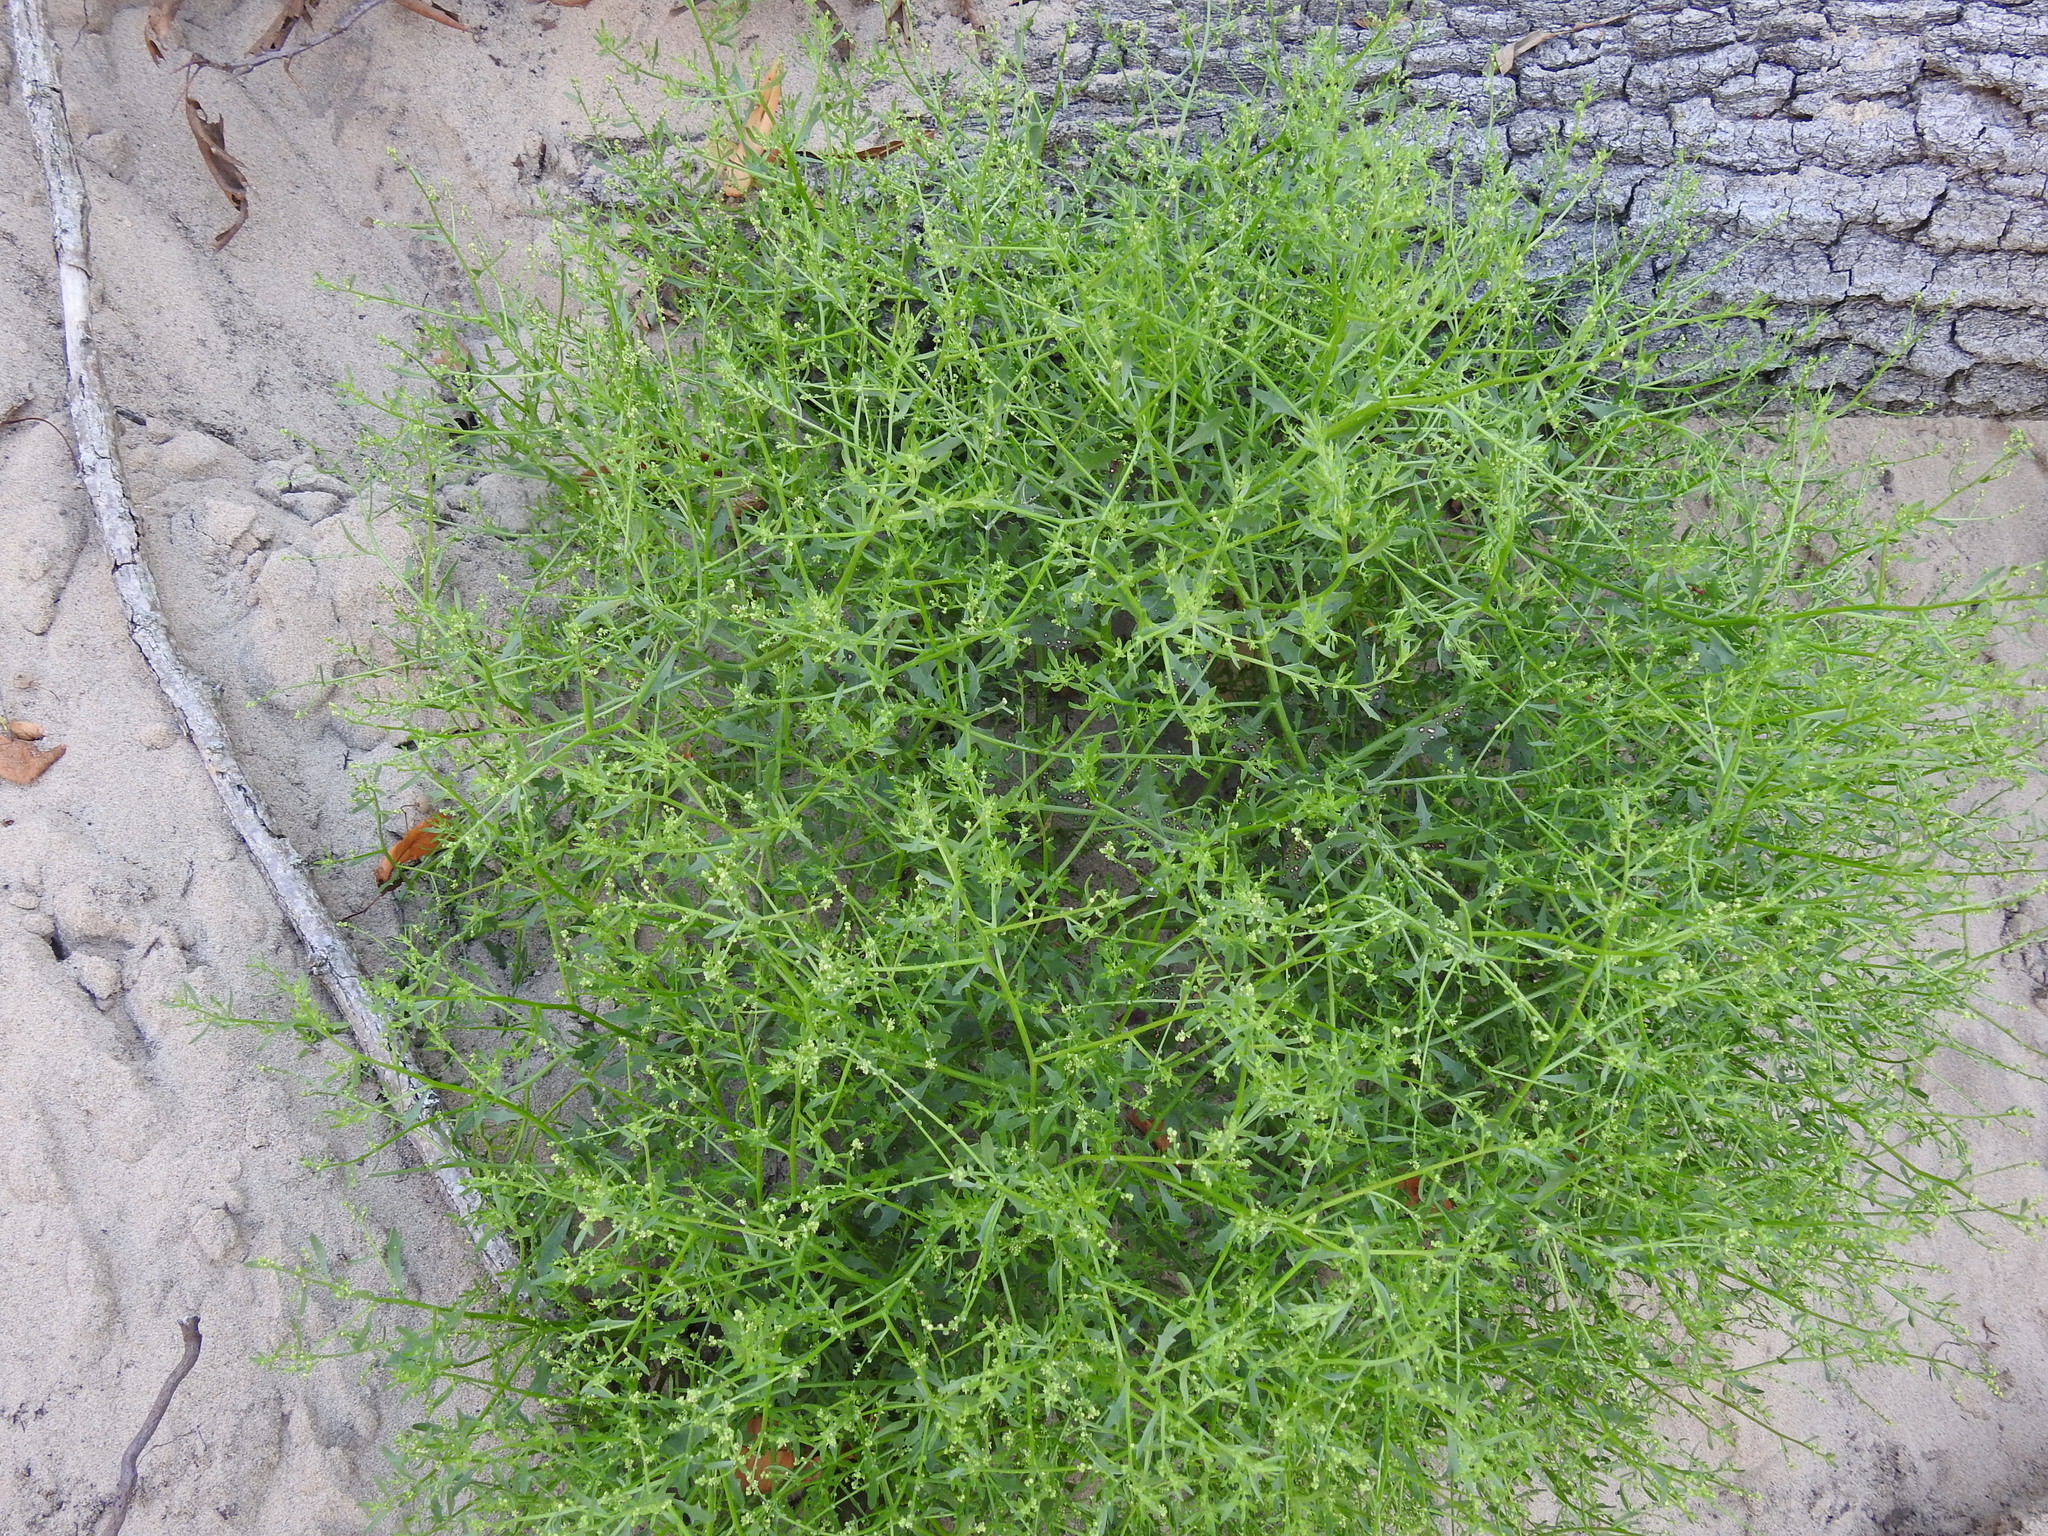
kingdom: Plantae
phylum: Tracheophyta
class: Magnoliopsida
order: Caryophyllales
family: Amaranthaceae
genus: Dysphania
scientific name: Dysphania atriplicifolia
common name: Plains tumbleweed
